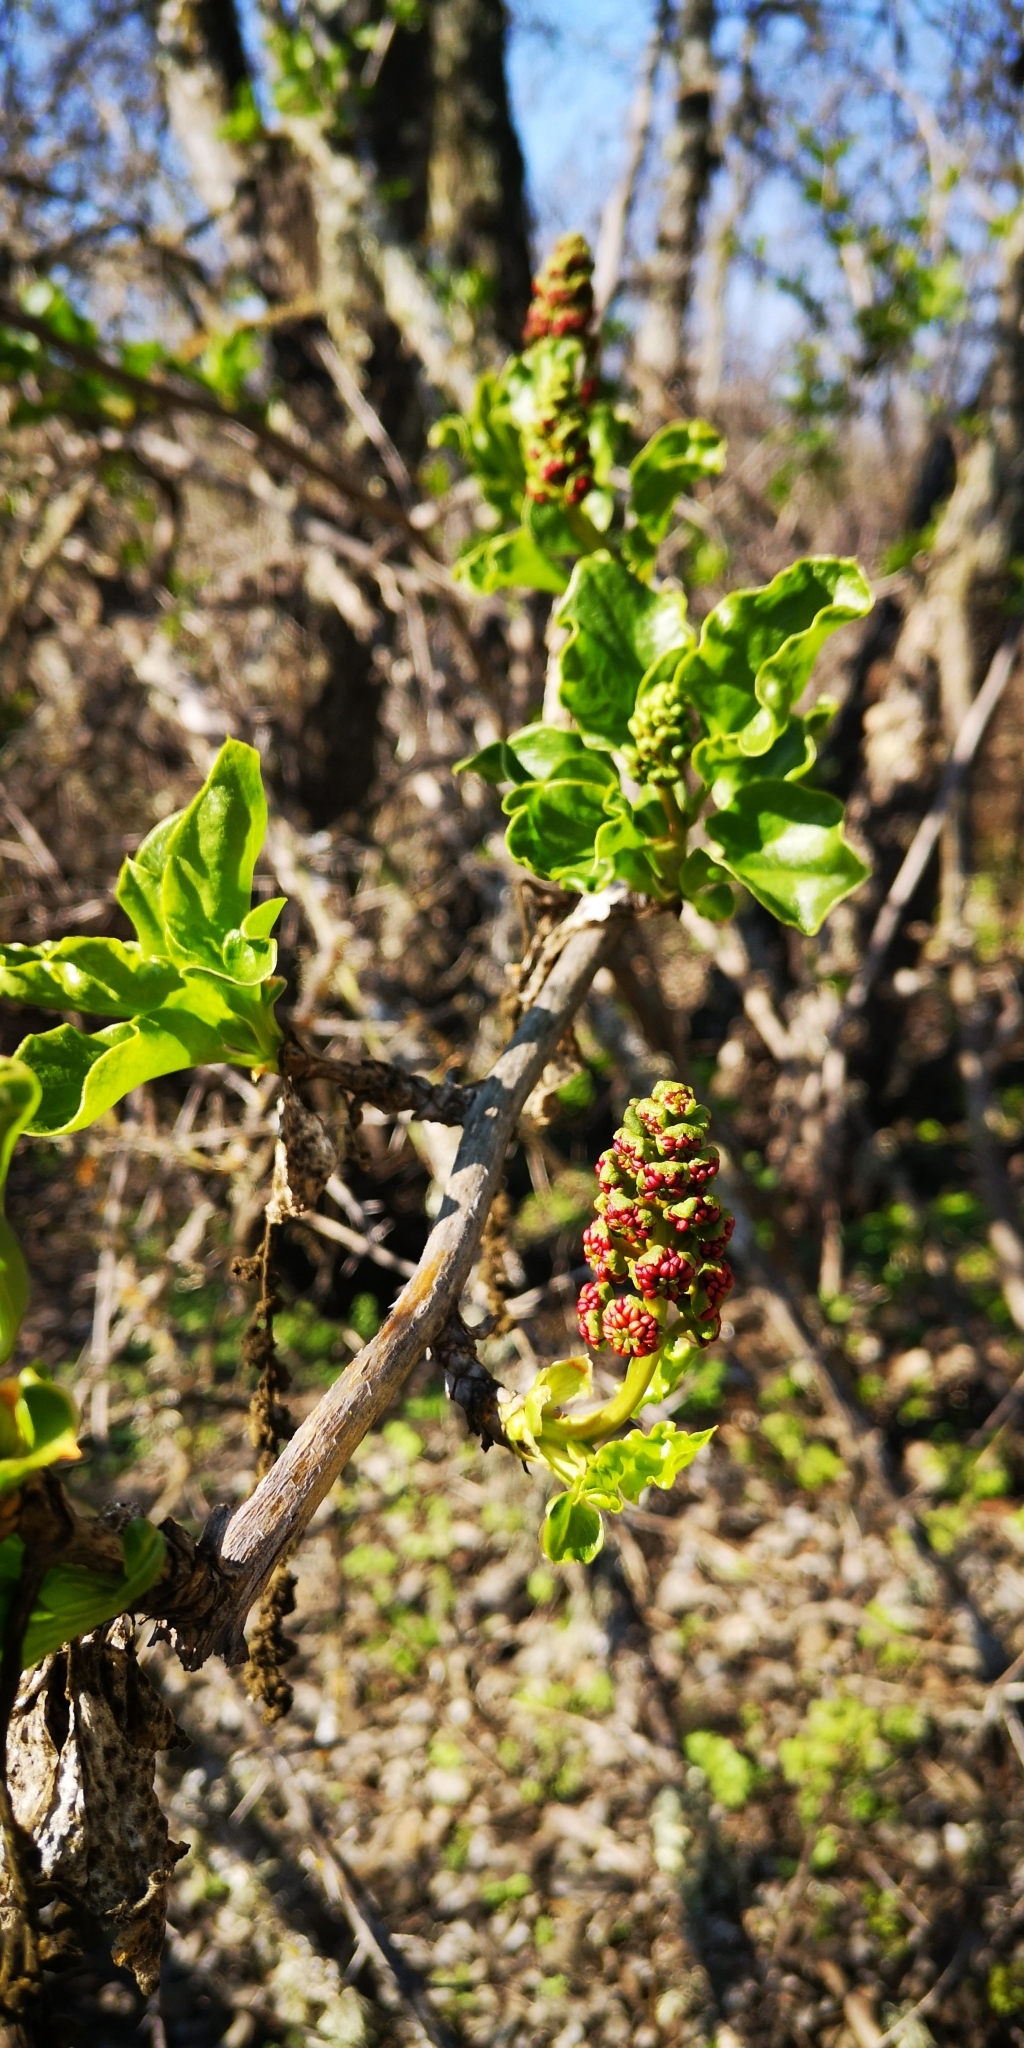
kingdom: Plantae
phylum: Tracheophyta
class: Magnoliopsida
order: Caryophyllales
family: Phytolaccaceae
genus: Anisomeria
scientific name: Anisomeria littoralis
